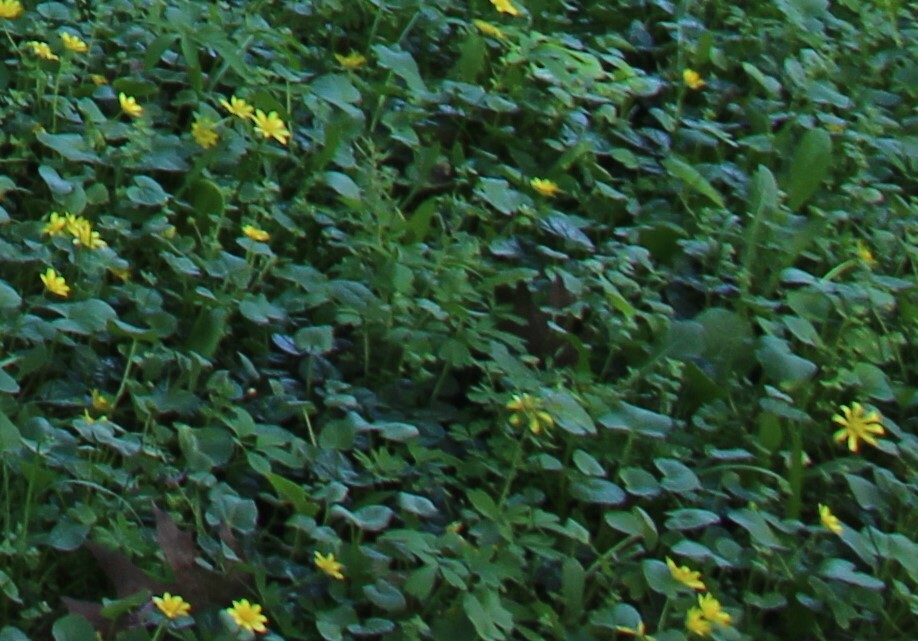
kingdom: Plantae
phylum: Tracheophyta
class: Magnoliopsida
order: Ranunculales
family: Ranunculaceae
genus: Ficaria
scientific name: Ficaria verna
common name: Lesser celandine
